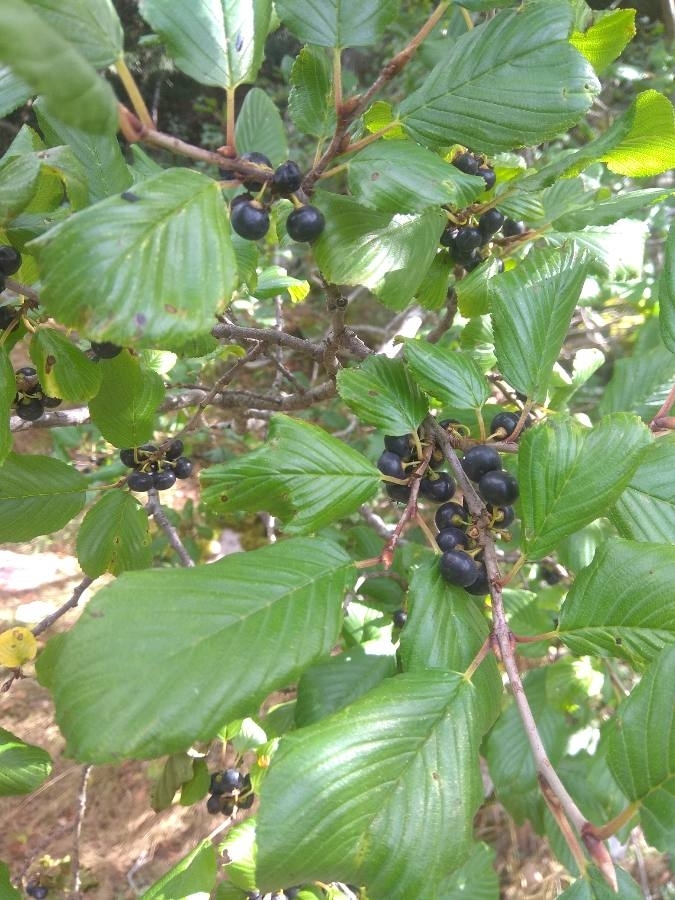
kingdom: Plantae
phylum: Tracheophyta
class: Magnoliopsida
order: Rosales
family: Rhamnaceae
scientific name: Rhamnaceae
